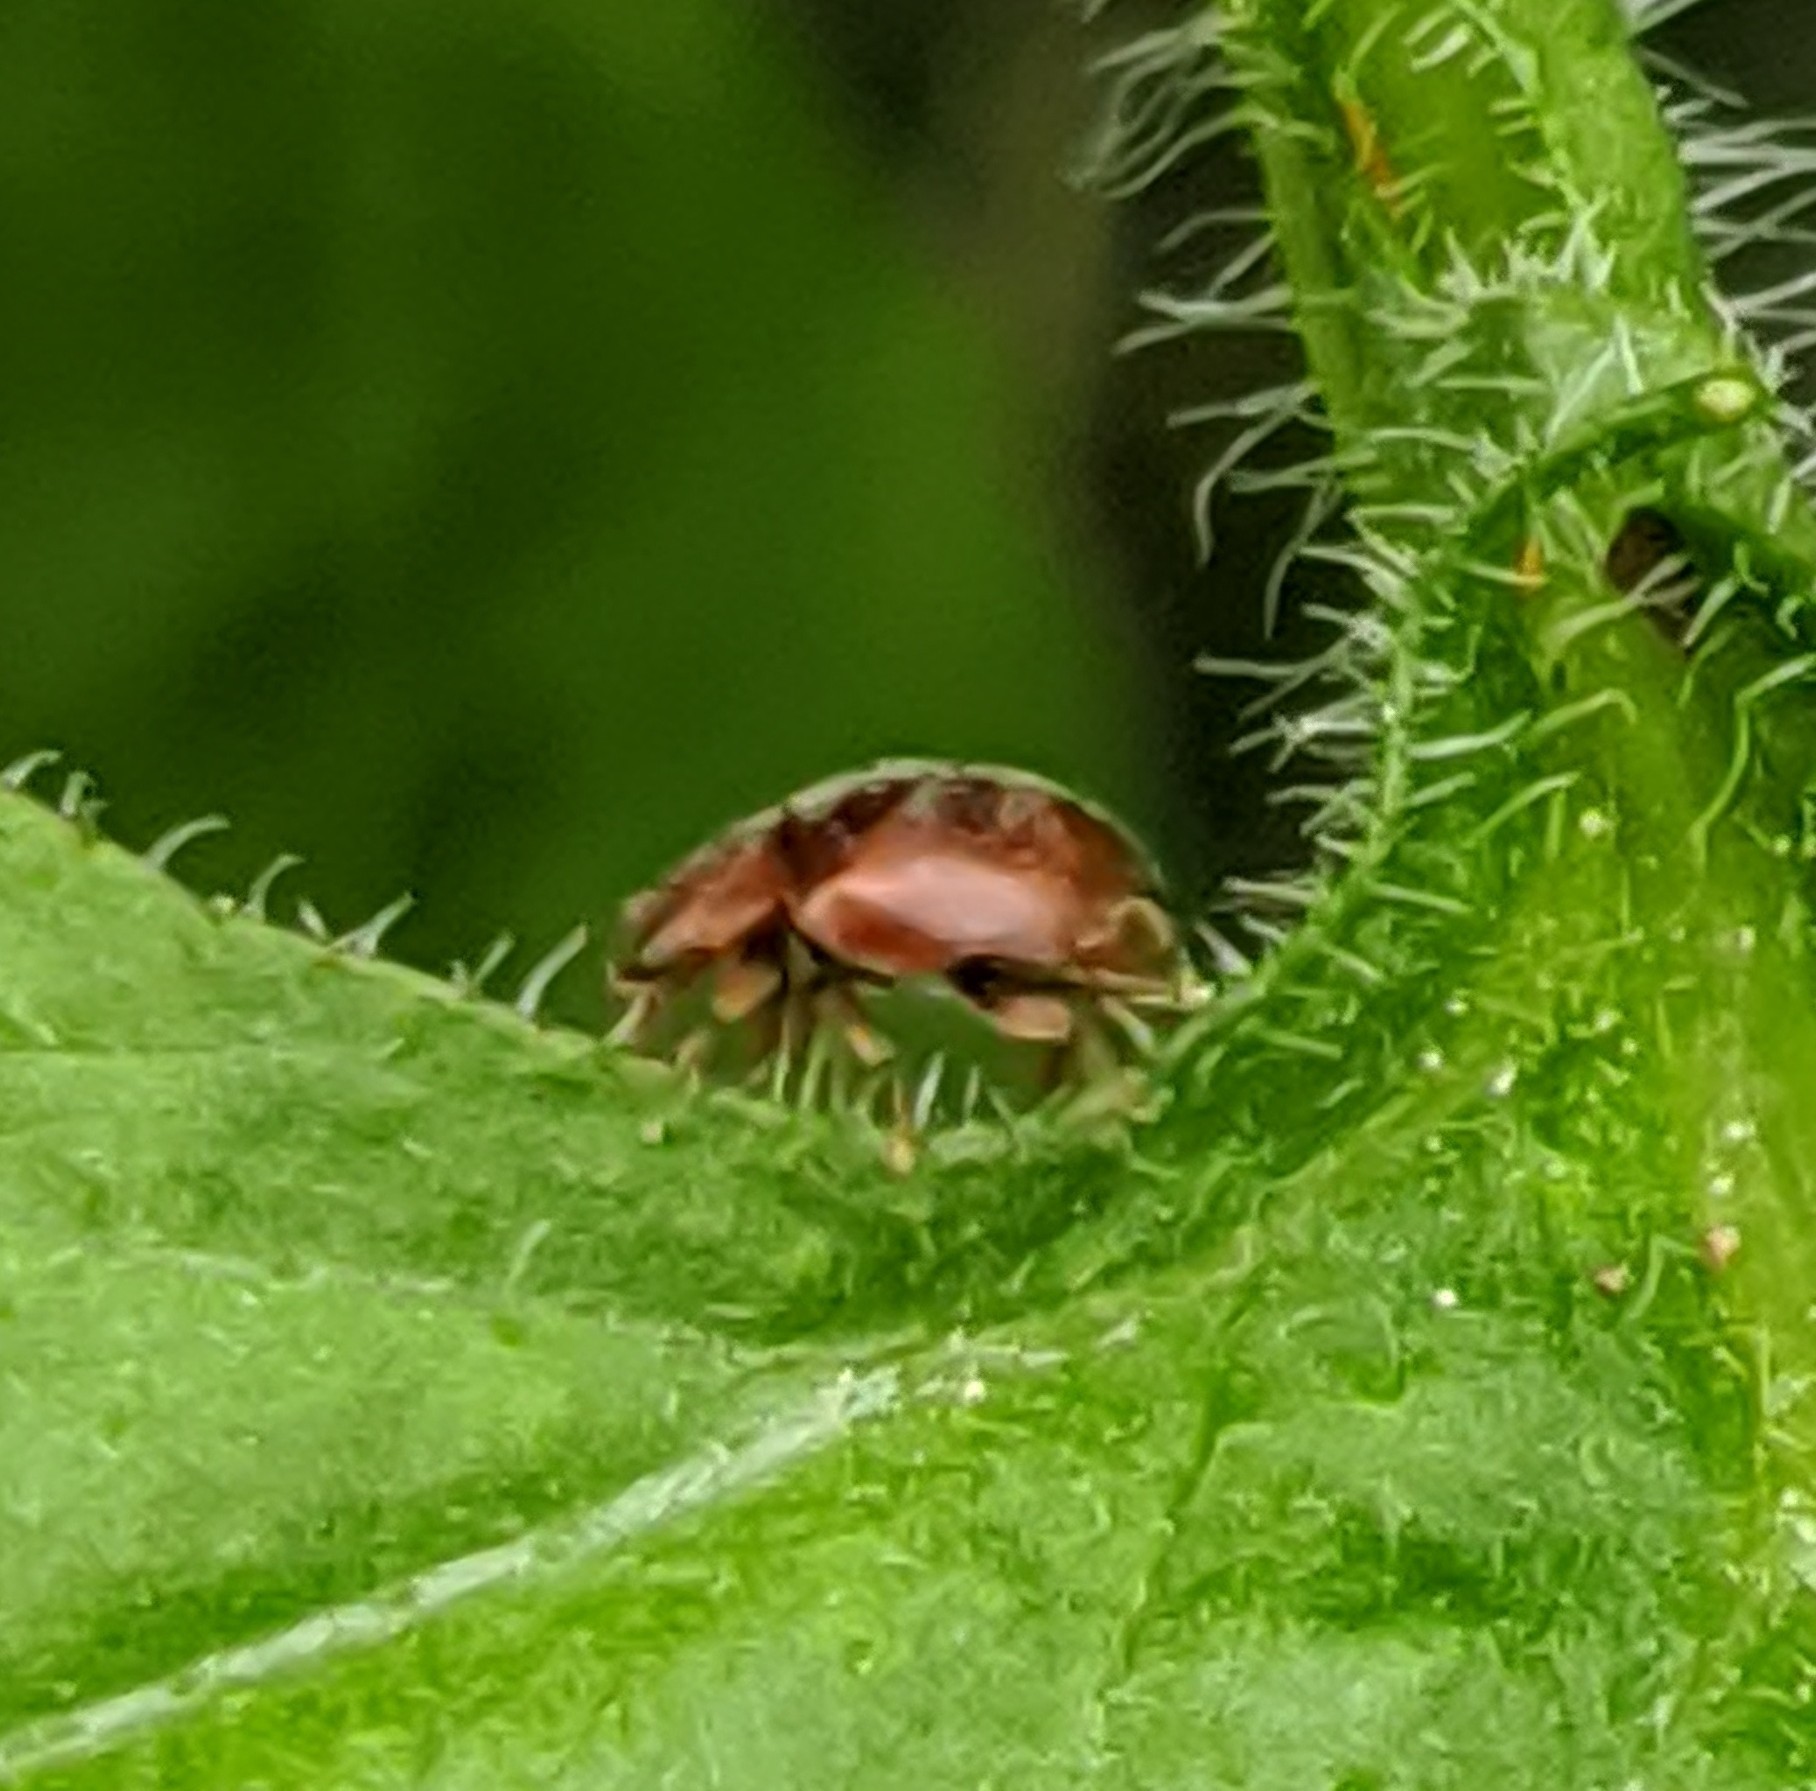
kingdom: Animalia
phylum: Arthropoda
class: Insecta
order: Coleoptera
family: Coccinellidae
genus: Scymnus
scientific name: Scymnus nebulosus
